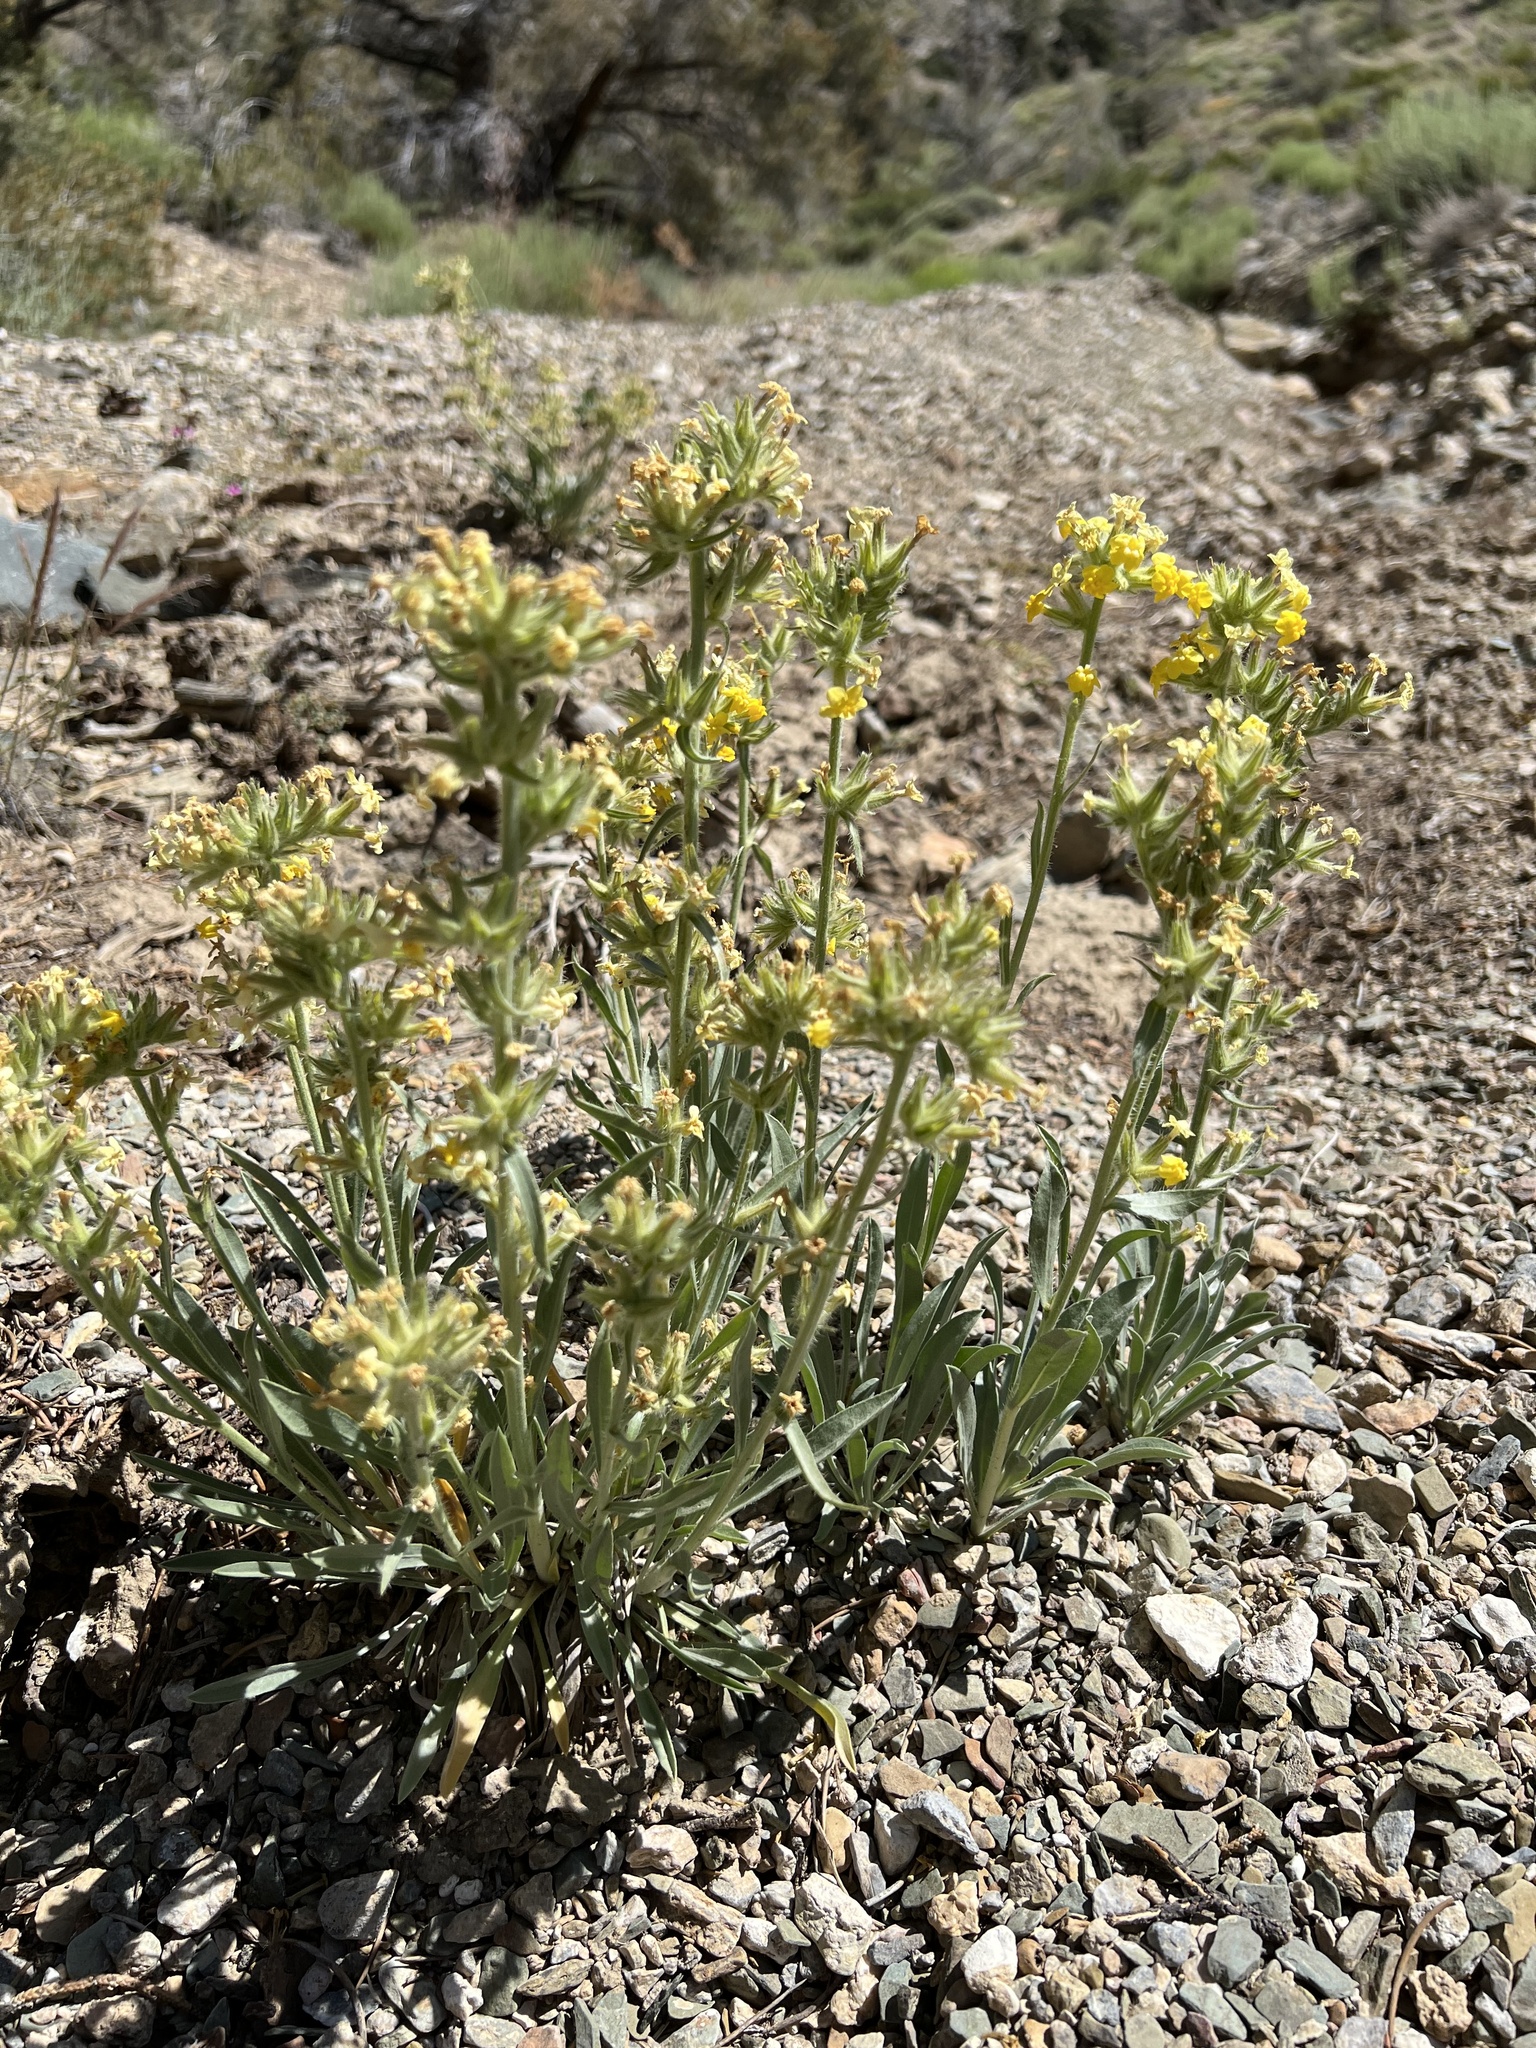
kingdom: Plantae
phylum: Tracheophyta
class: Magnoliopsida
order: Boraginales
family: Boraginaceae
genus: Oreocarya
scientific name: Oreocarya confertiflora
